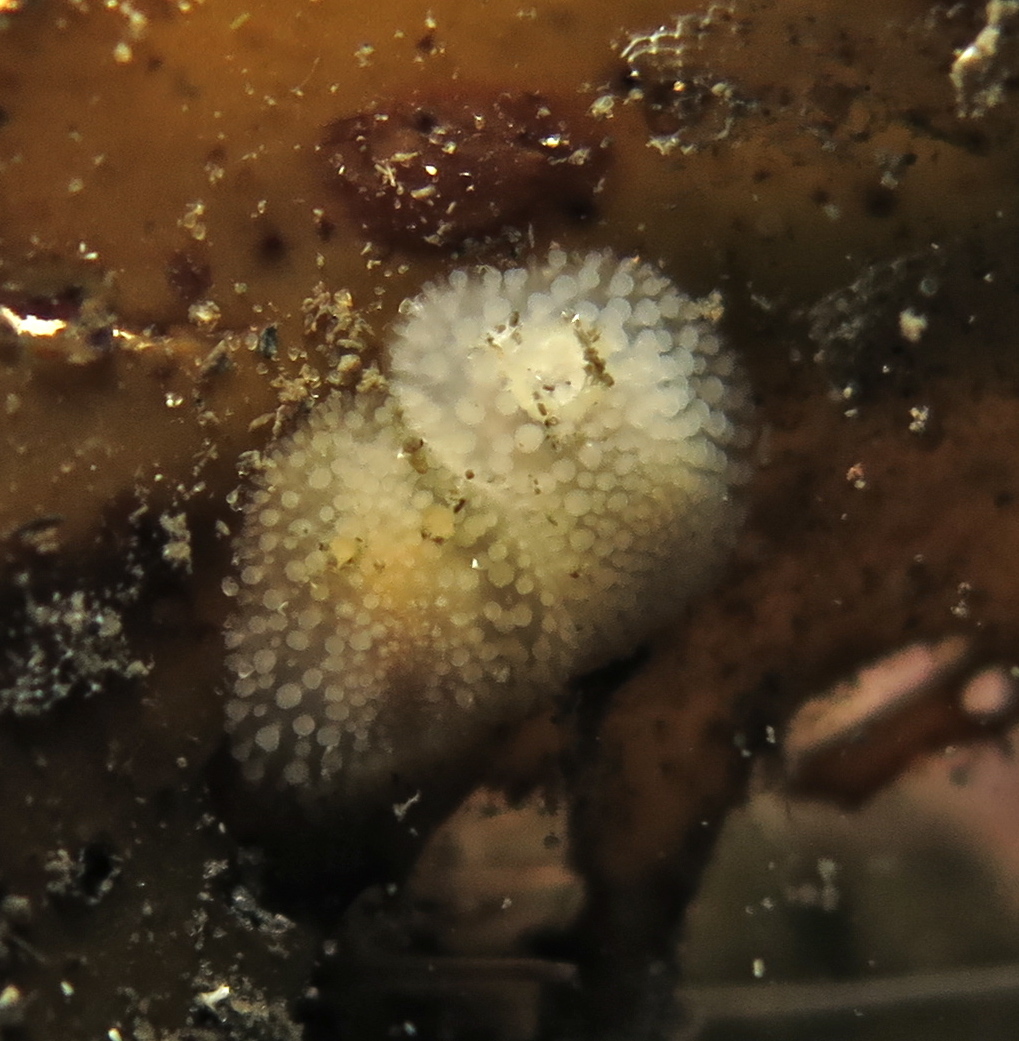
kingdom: Animalia
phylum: Mollusca
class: Gastropoda
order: Nudibranchia
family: Onchidorididae
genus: Onchidoris
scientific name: Onchidoris muricata
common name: Rough doris
